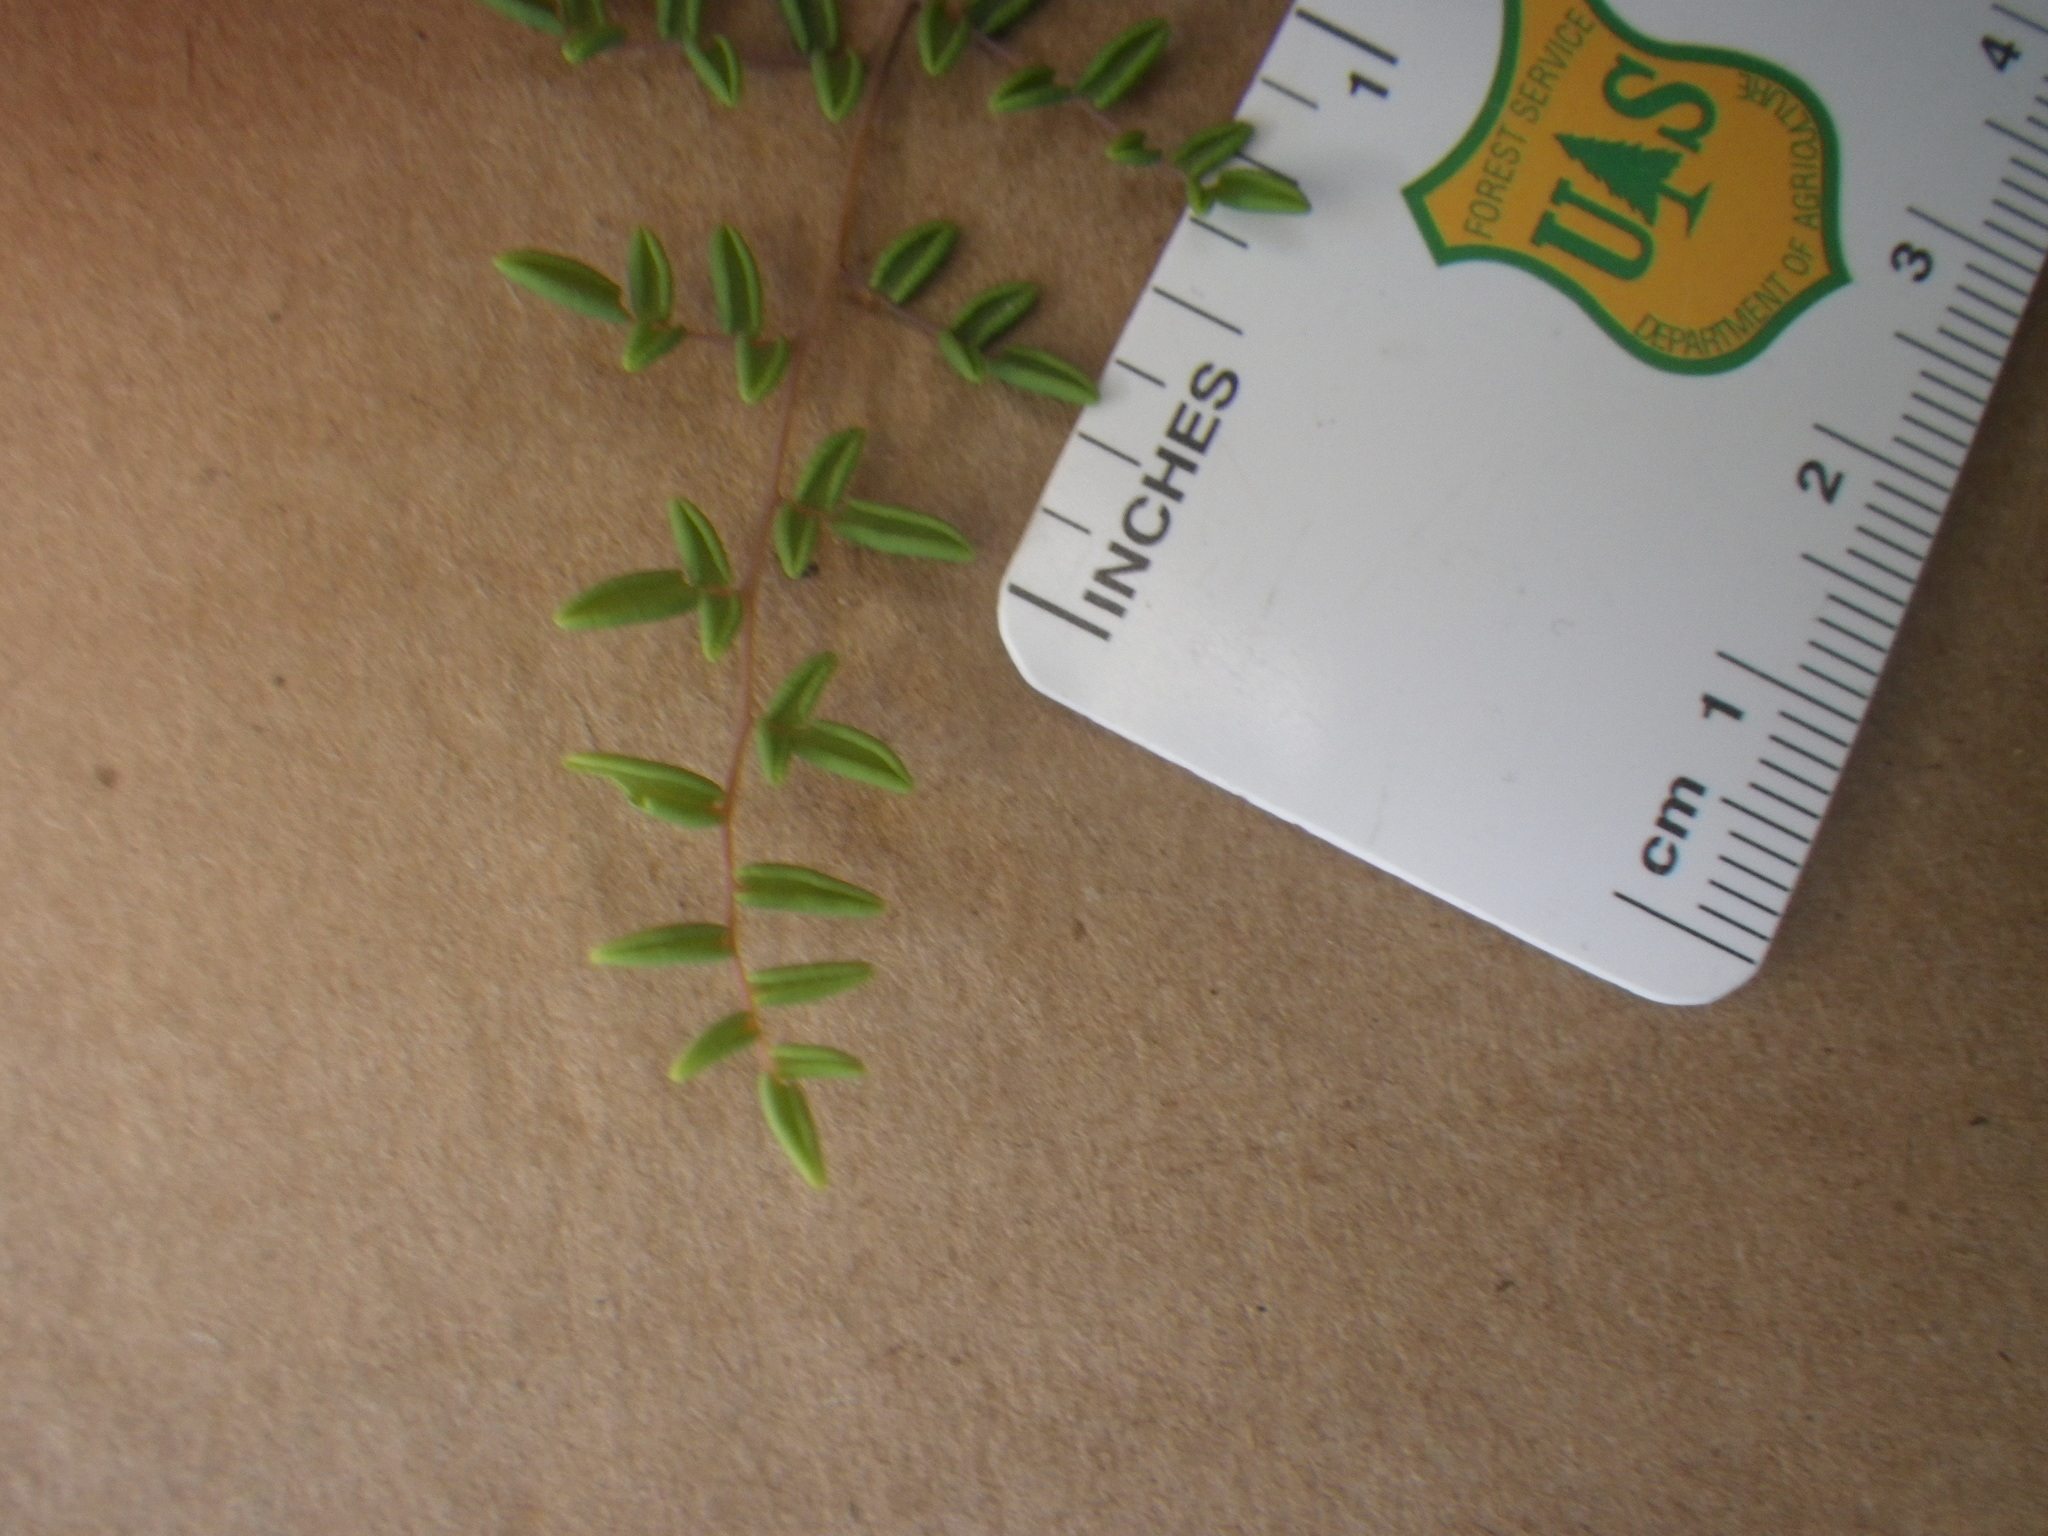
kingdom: Plantae
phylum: Tracheophyta
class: Polypodiopsida
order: Polypodiales
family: Pteridaceae
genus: Pellaea
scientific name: Pellaea andromedifolia
